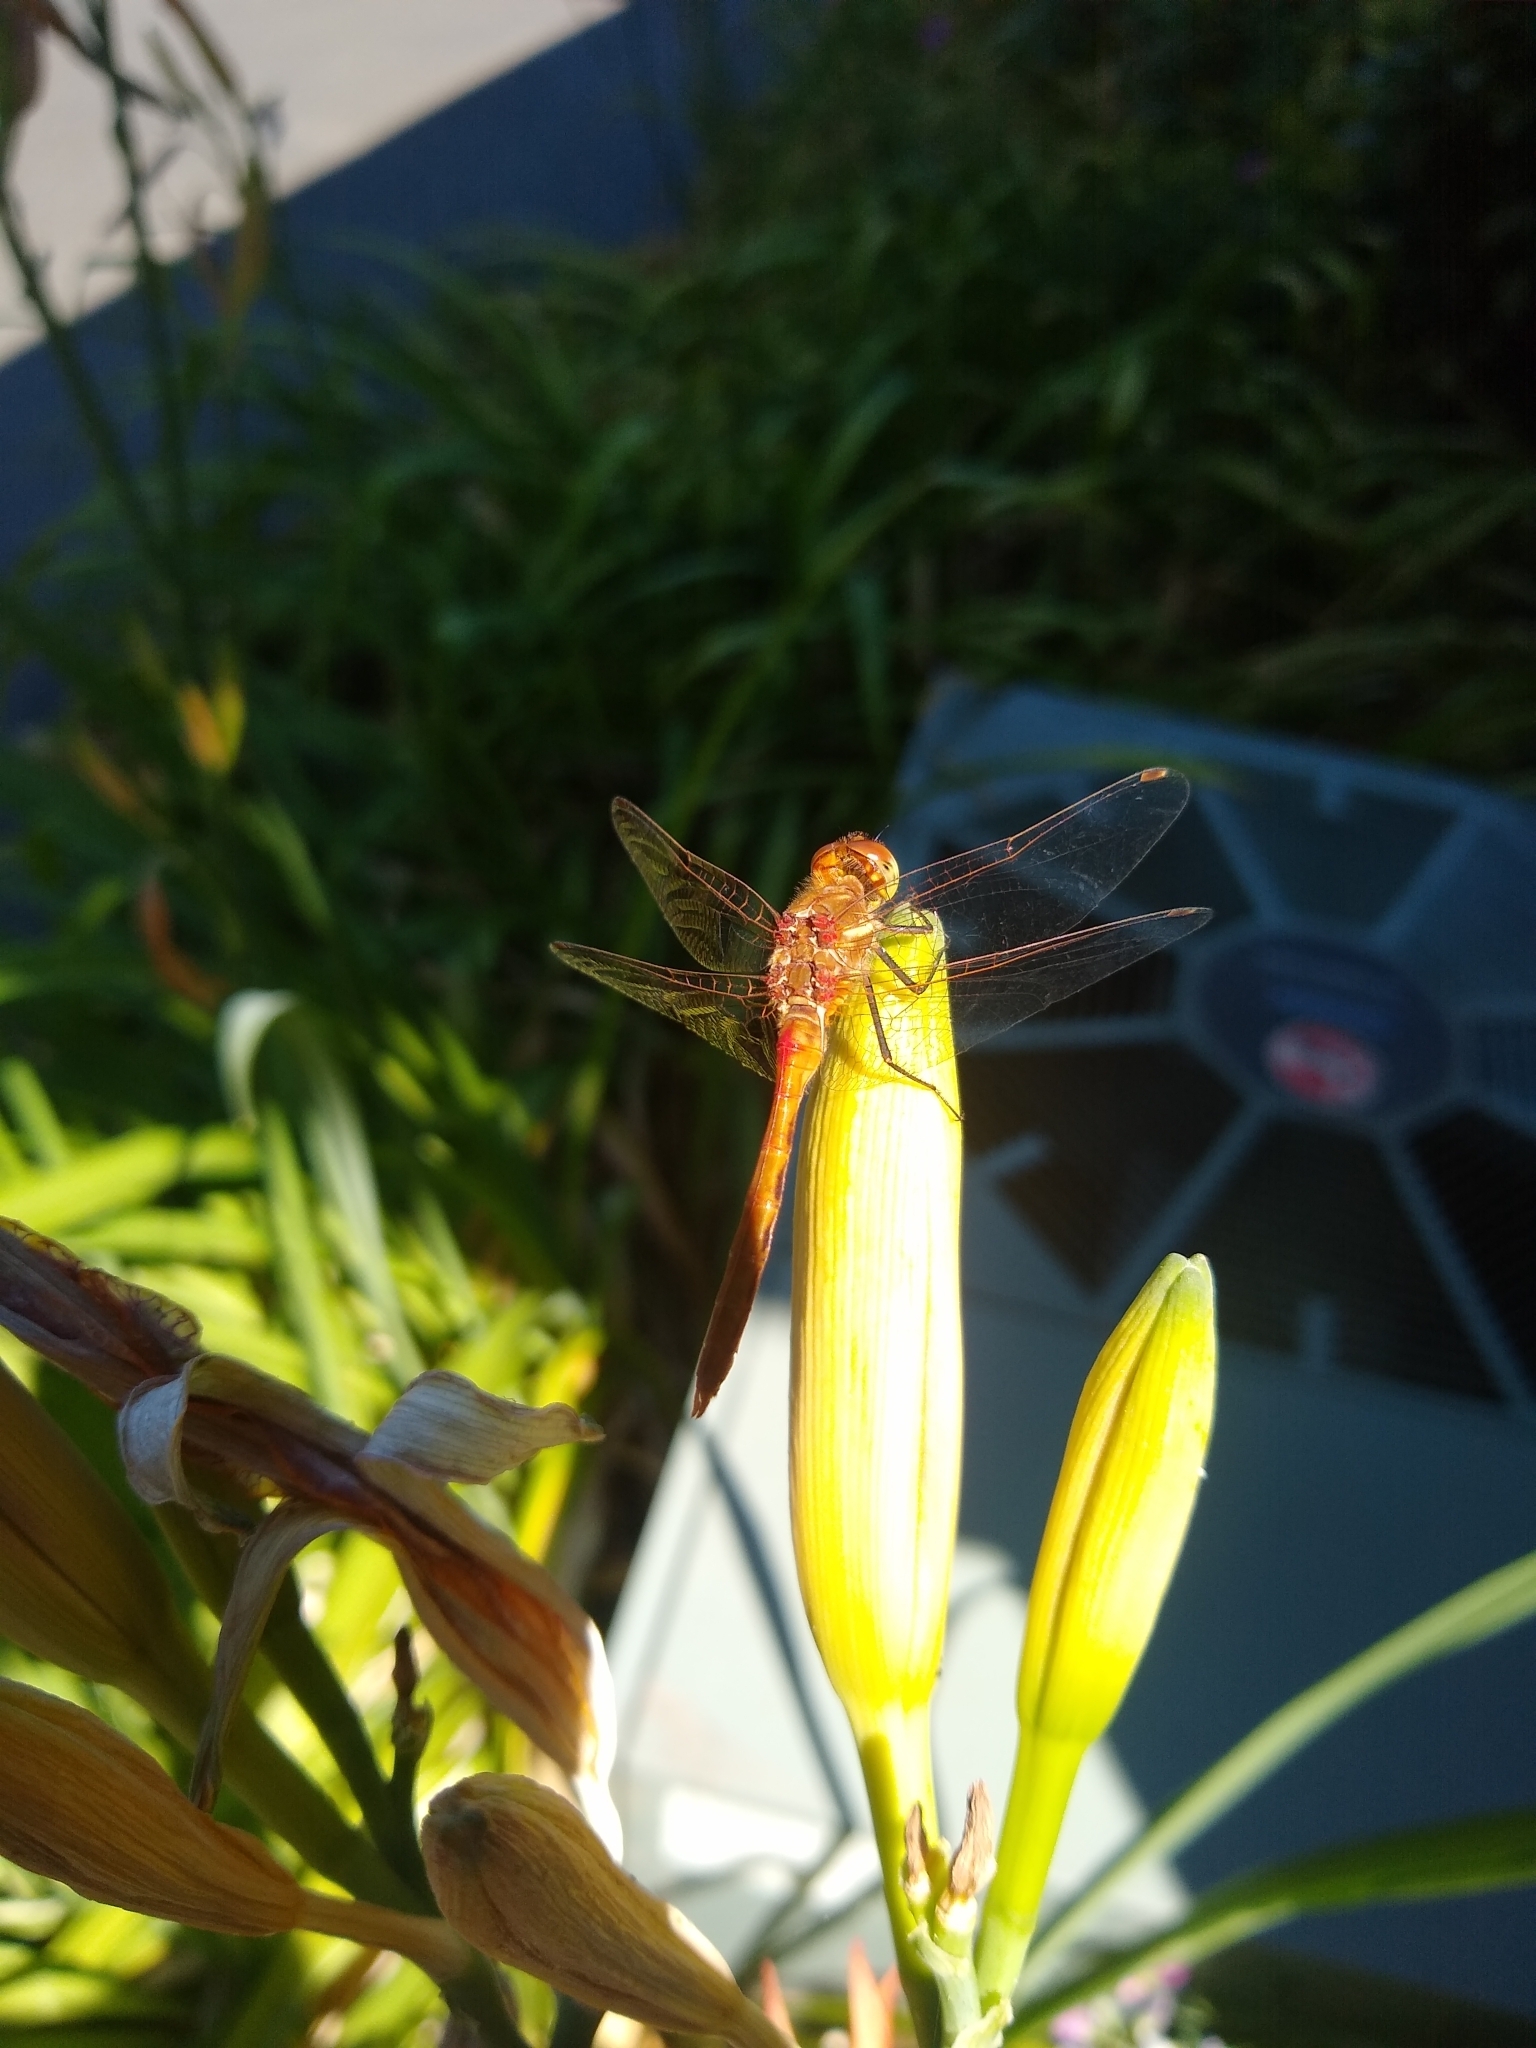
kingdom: Animalia
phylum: Arthropoda
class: Insecta
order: Odonata
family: Libellulidae
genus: Sympetrum
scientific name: Sympetrum pallipes
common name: Striped meadowhawk
